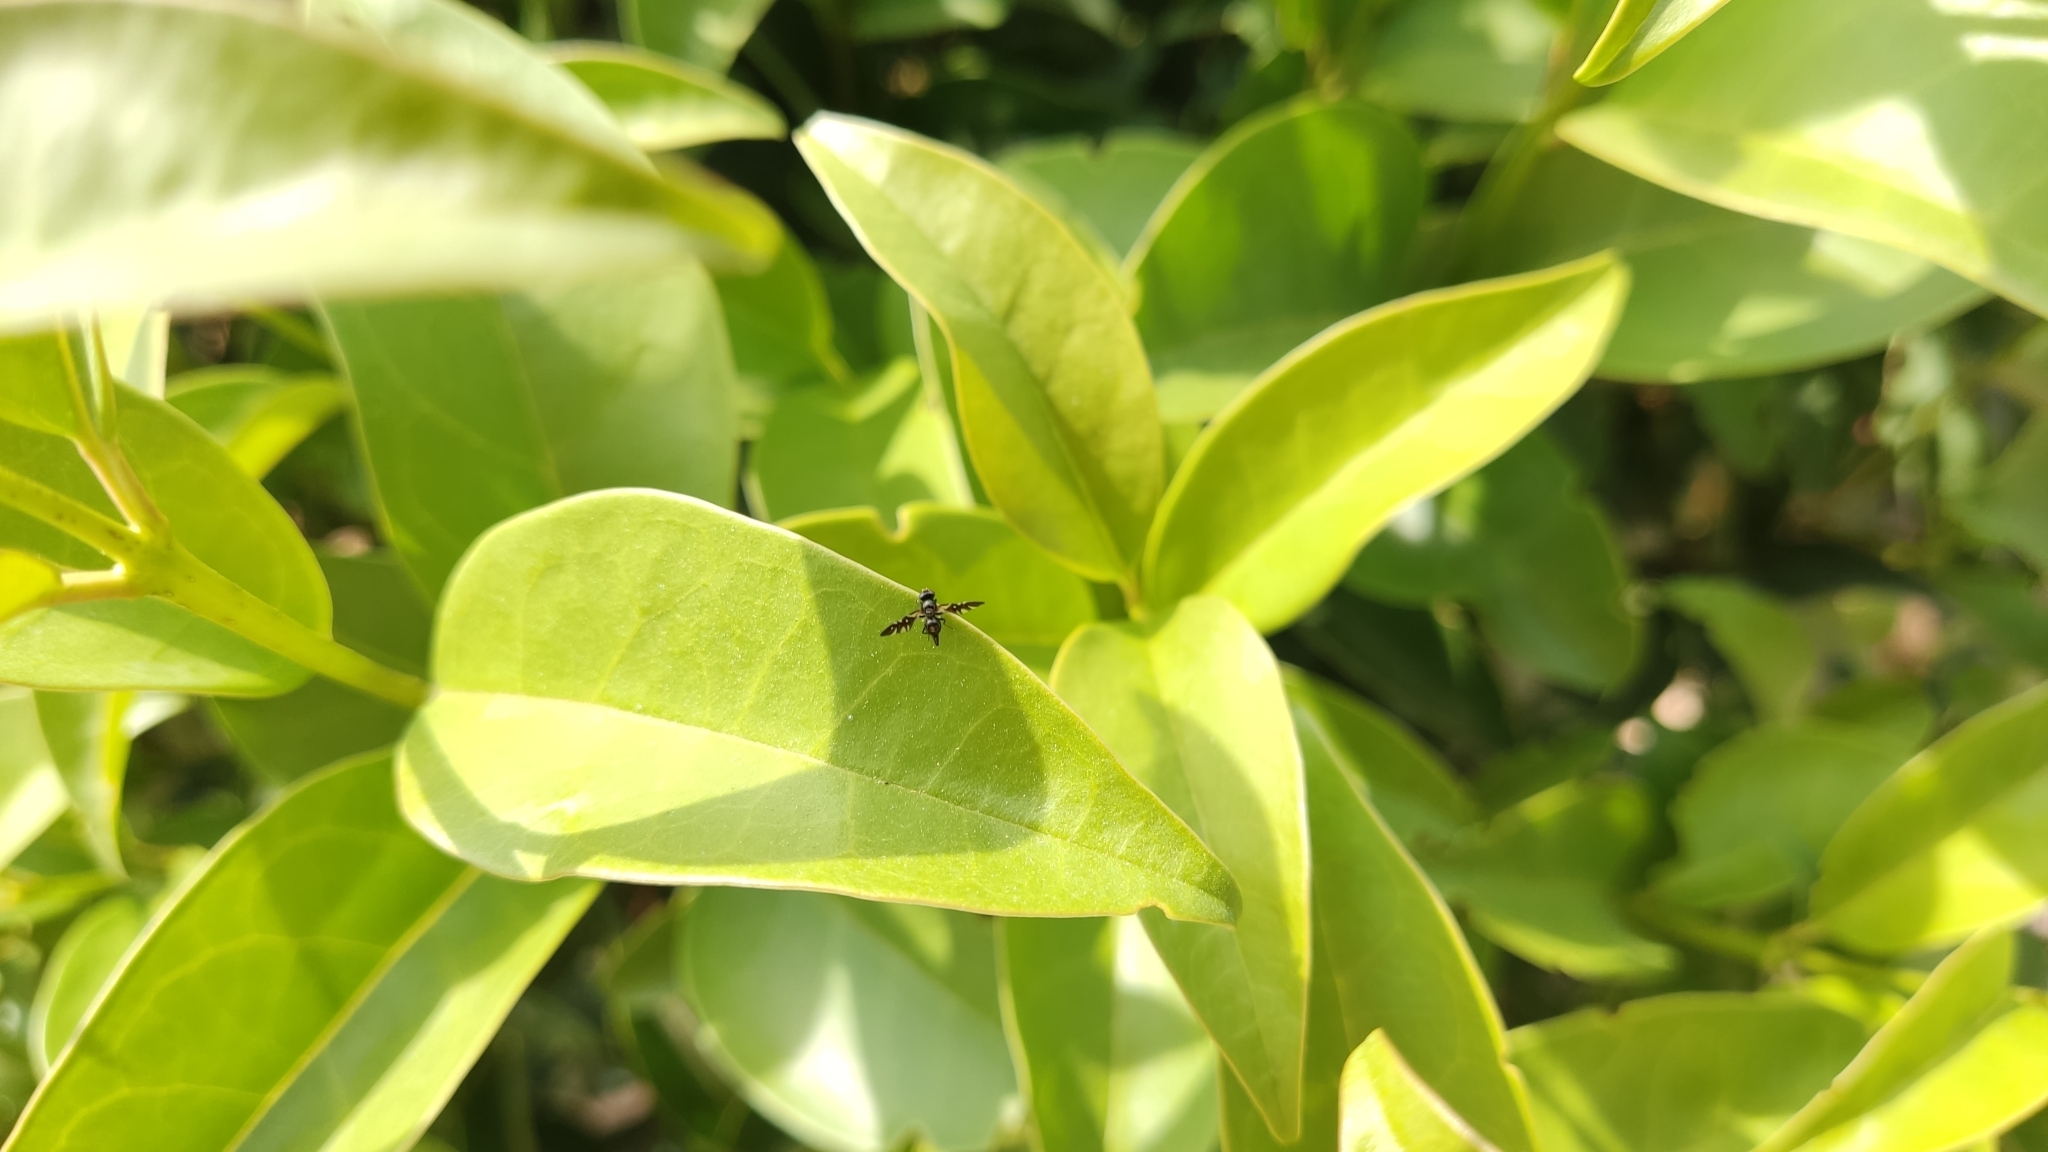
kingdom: Animalia
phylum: Arthropoda
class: Insecta
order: Diptera
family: Tephritidae
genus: Oxyaciura
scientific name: Oxyaciura tibialis
